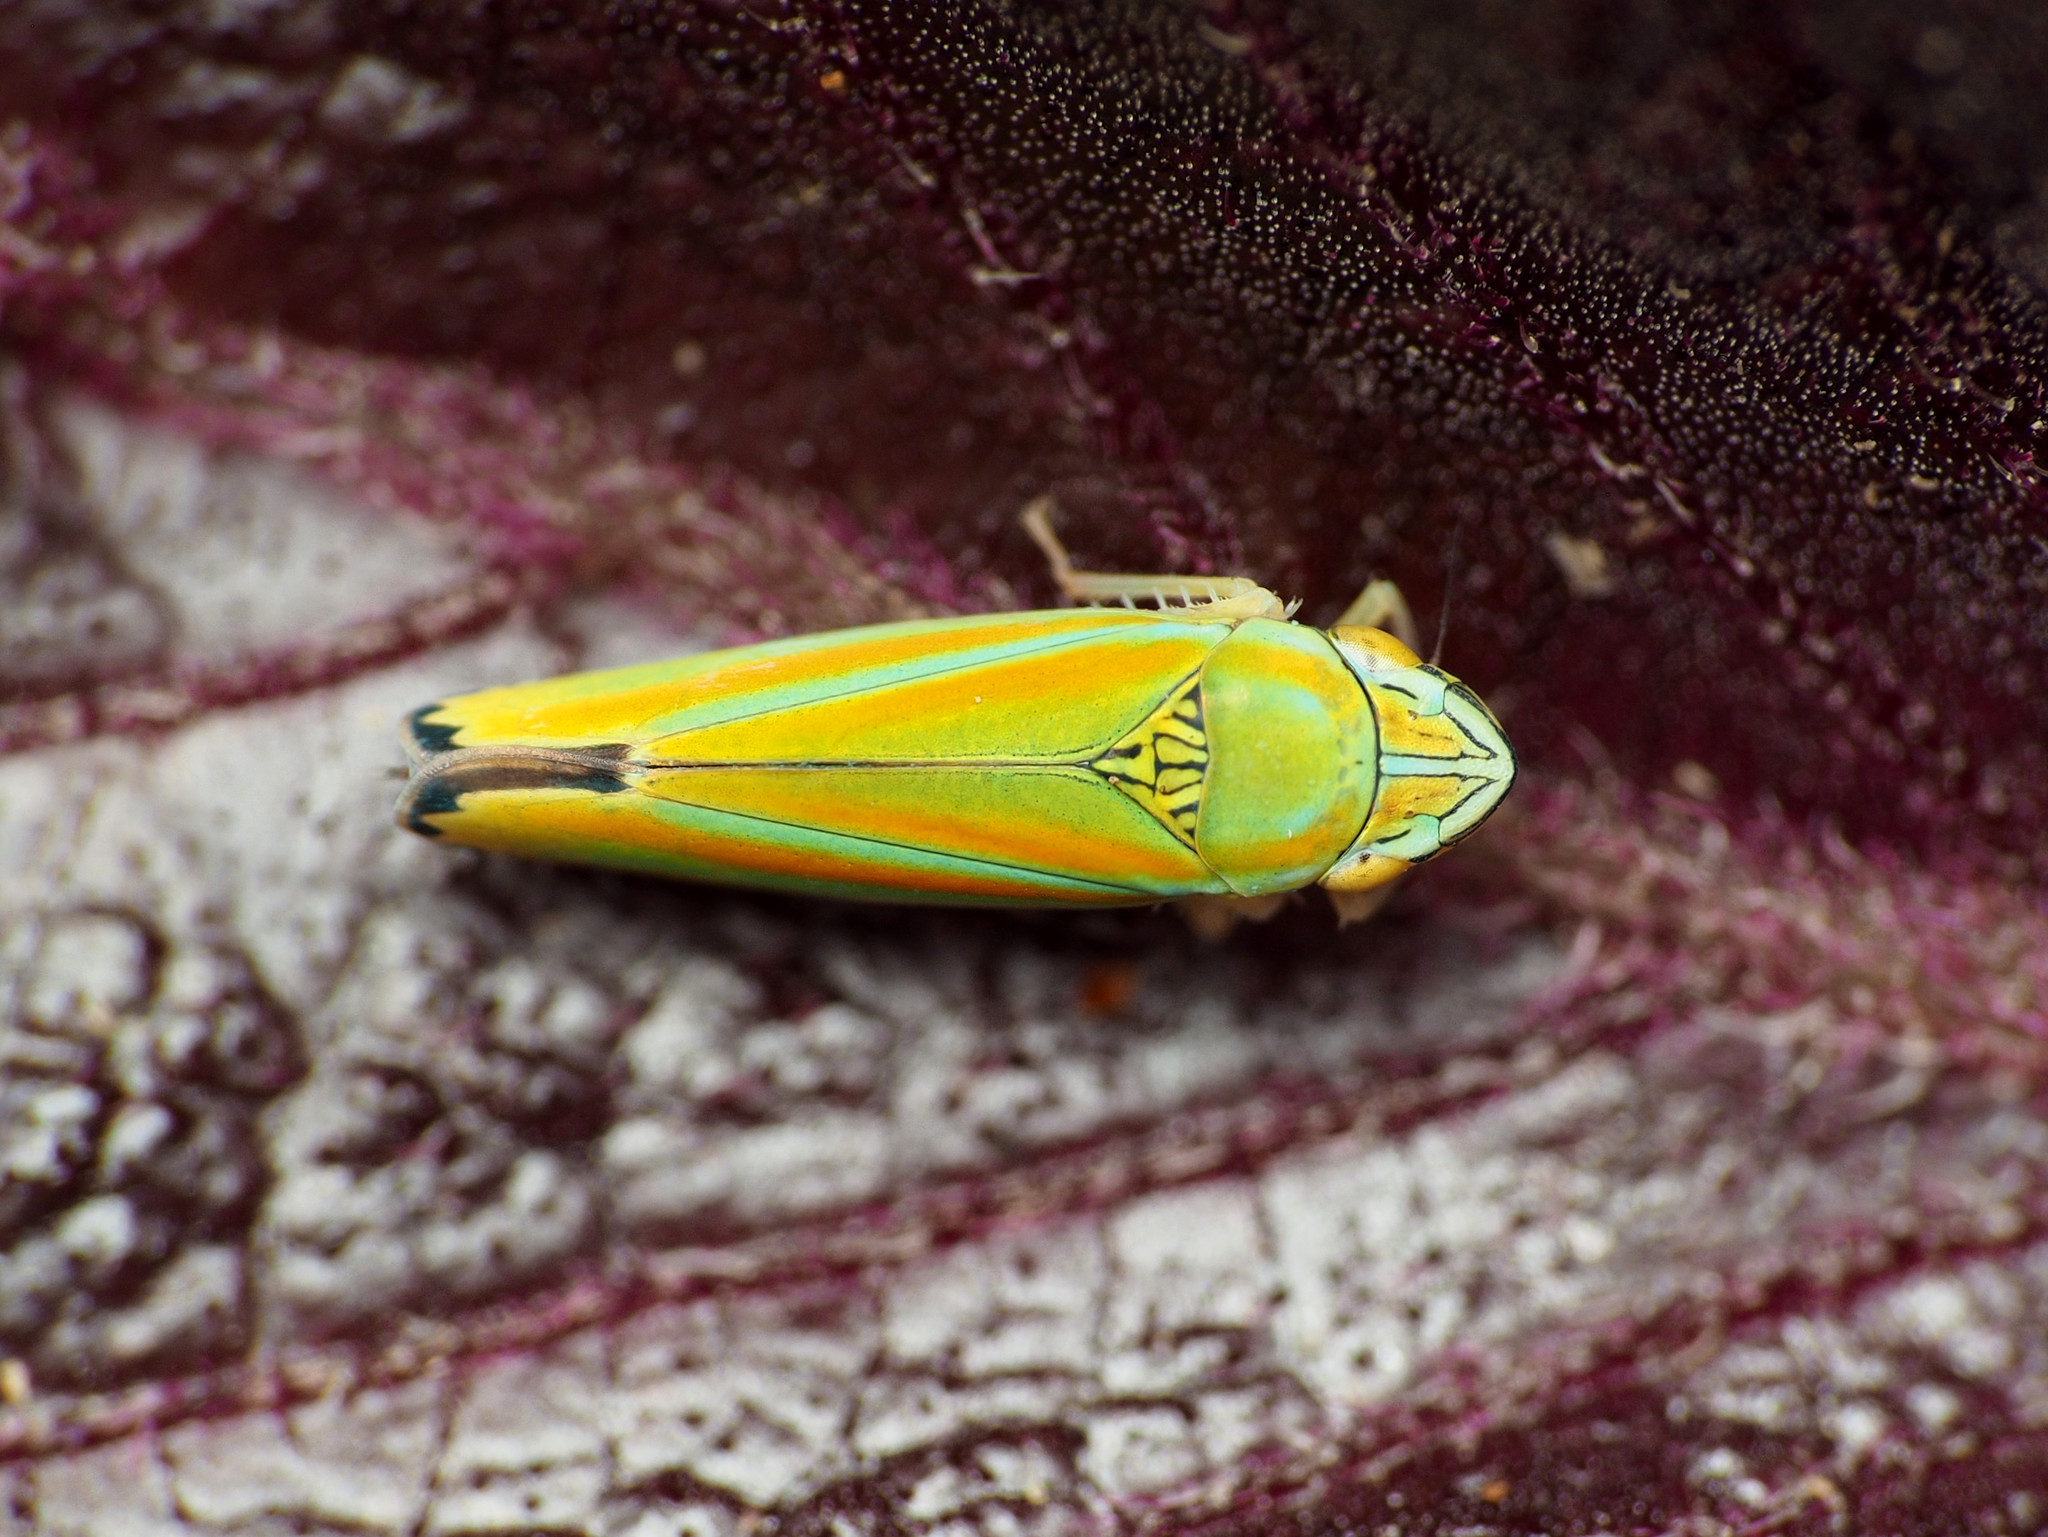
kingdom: Animalia
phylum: Arthropoda
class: Insecta
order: Hemiptera
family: Cicadellidae
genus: Graphocephala
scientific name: Graphocephala versuta
